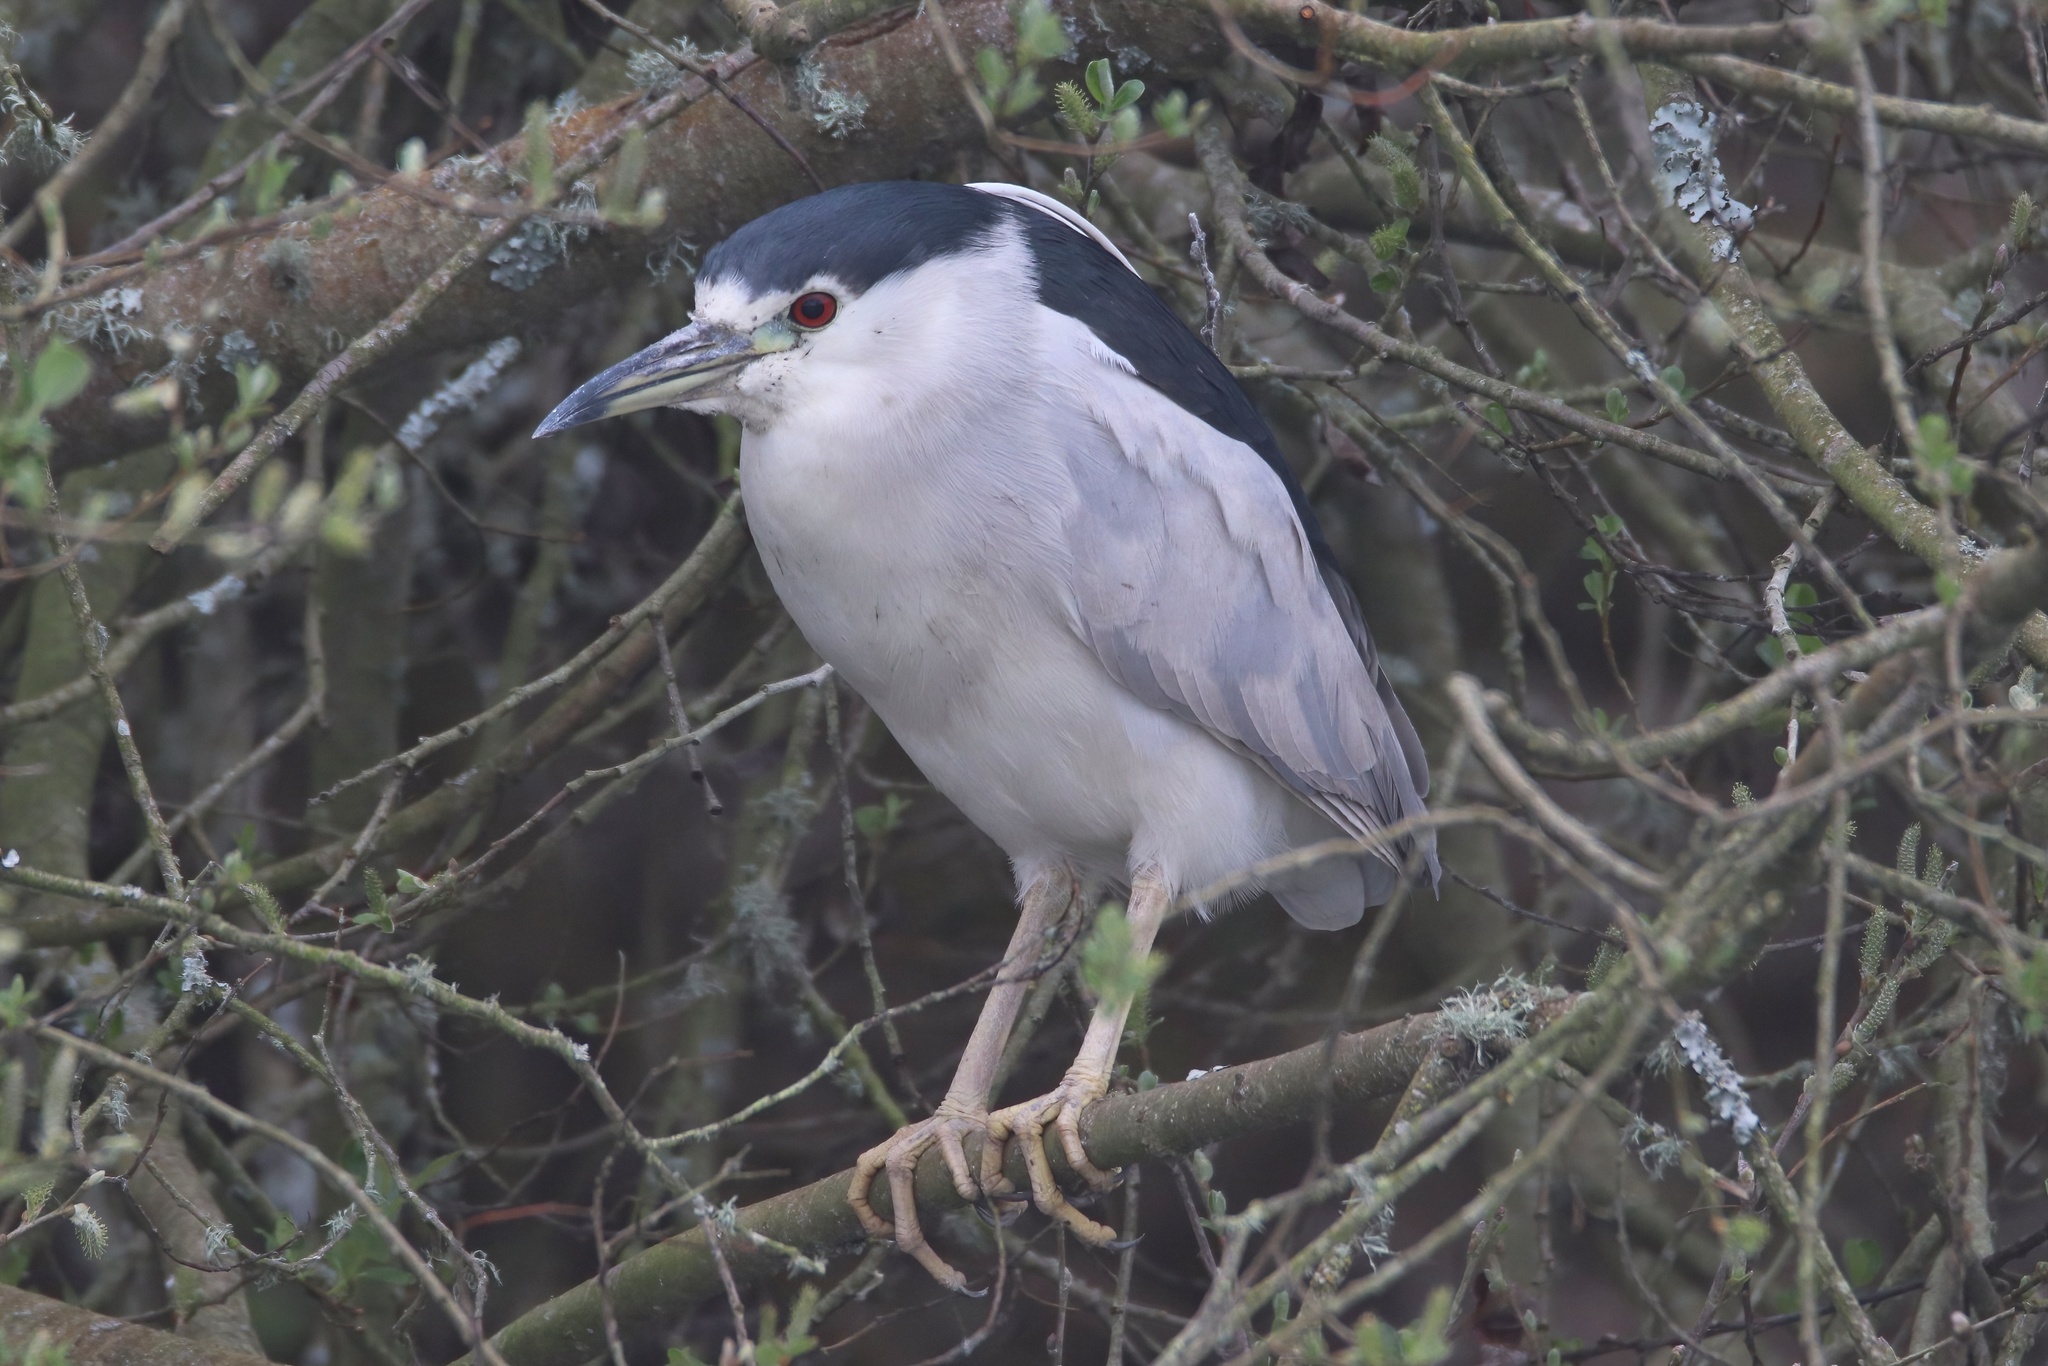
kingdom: Animalia
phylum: Chordata
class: Aves
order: Pelecaniformes
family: Ardeidae
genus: Nycticorax
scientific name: Nycticorax nycticorax
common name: Black-crowned night heron
